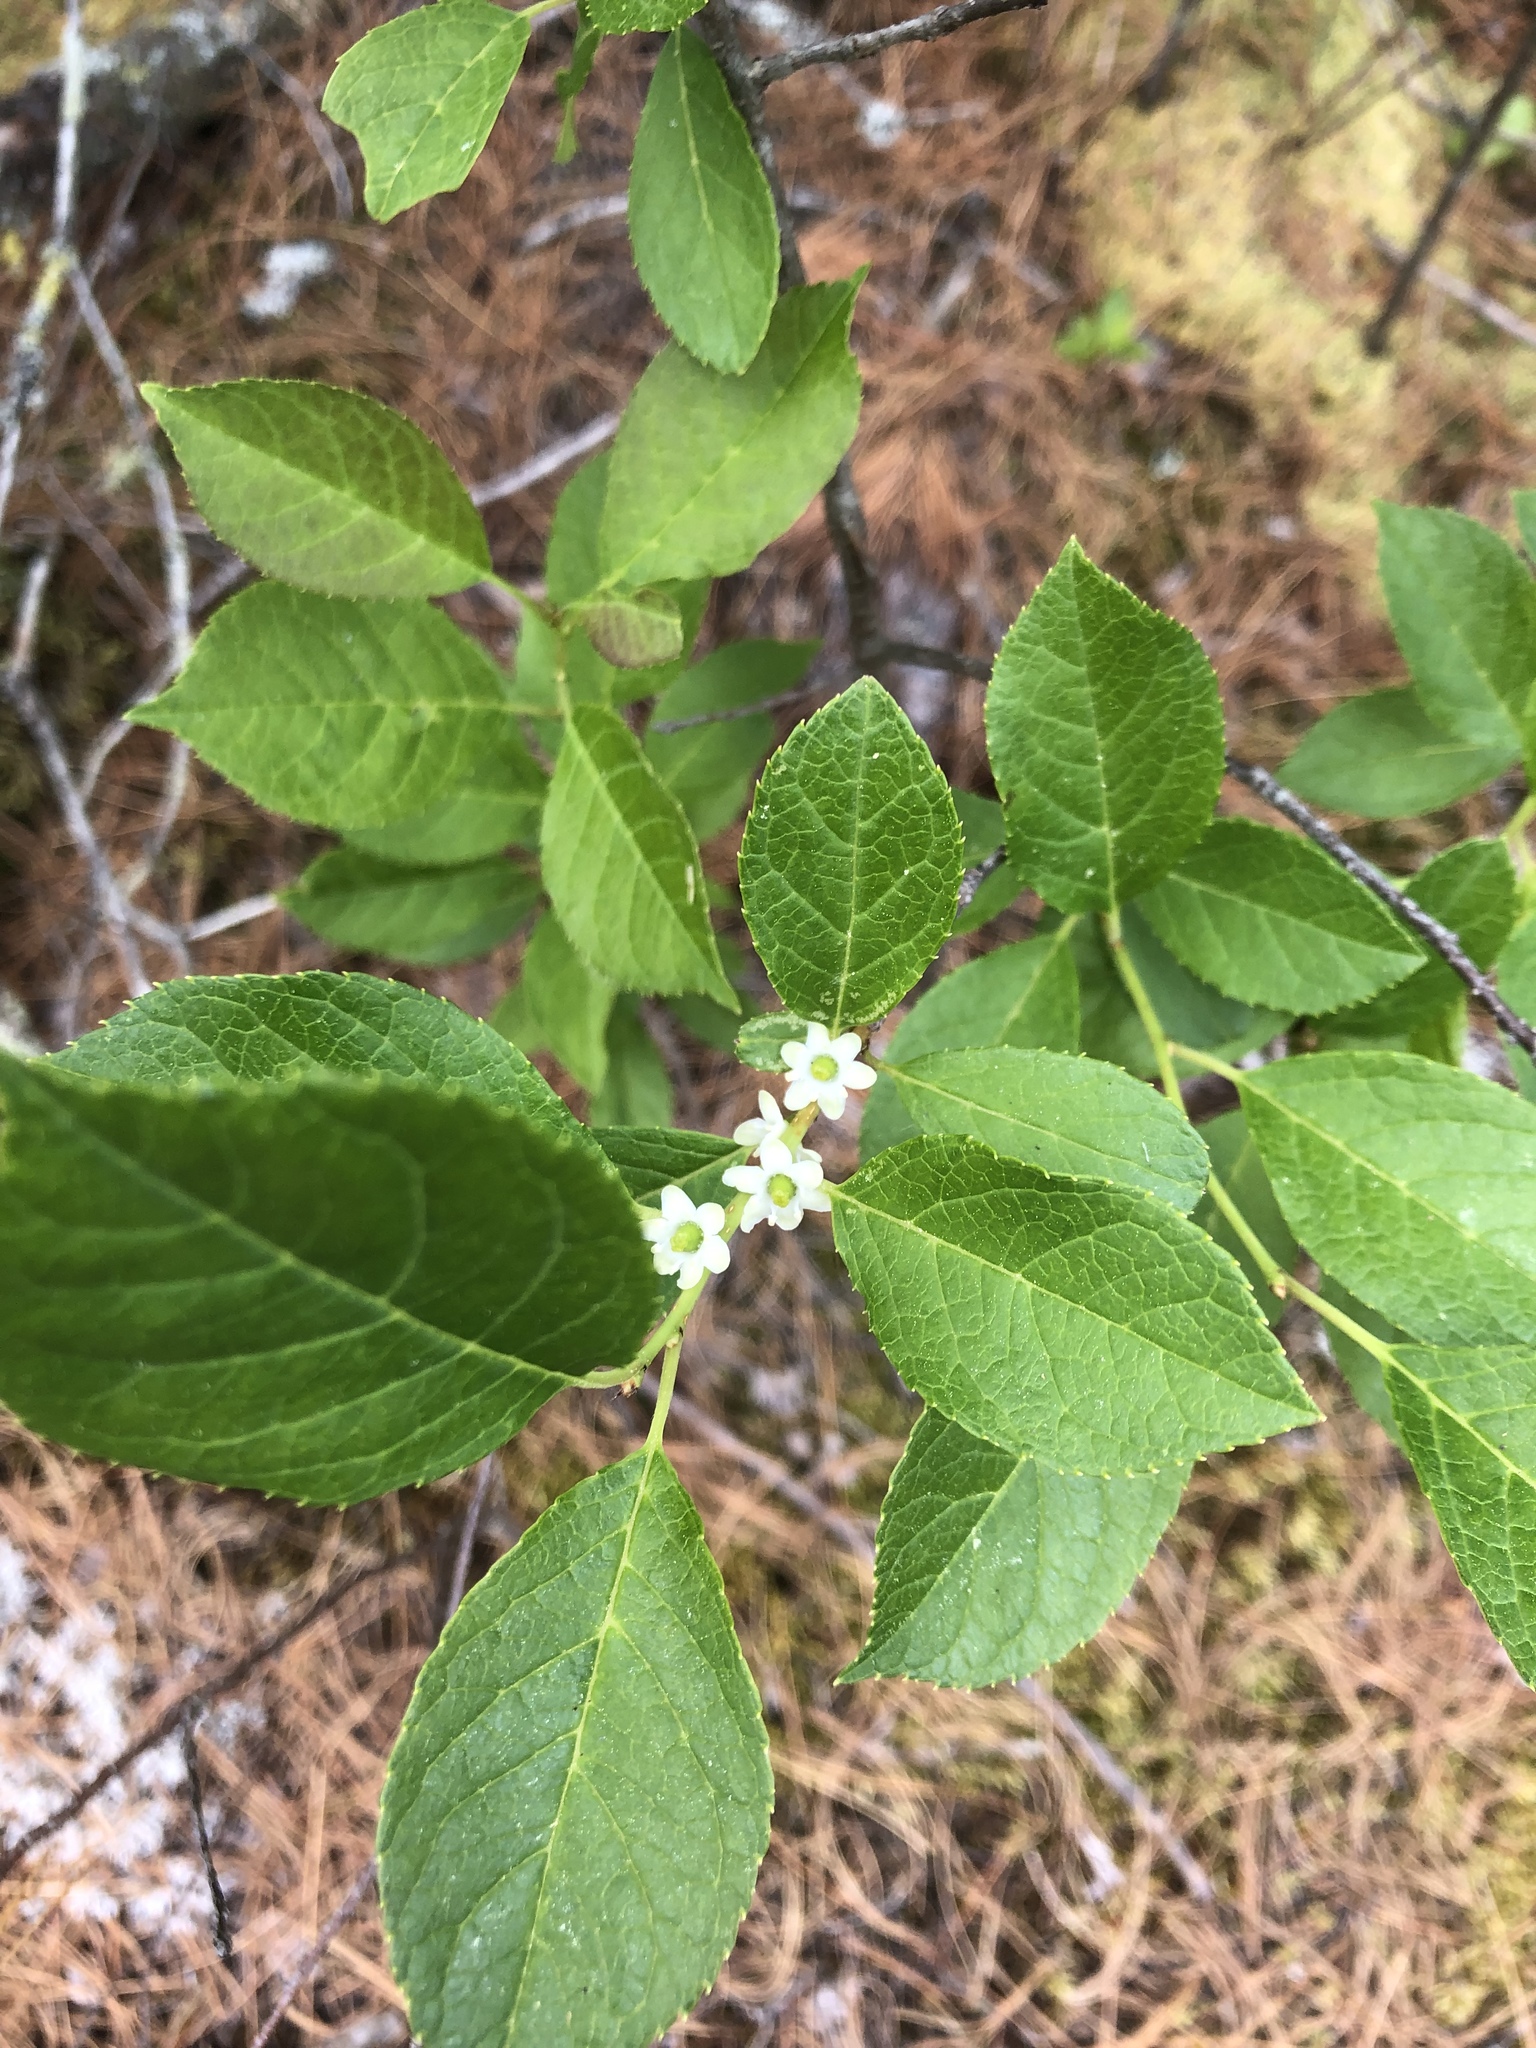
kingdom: Plantae
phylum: Tracheophyta
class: Magnoliopsida
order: Aquifoliales
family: Aquifoliaceae
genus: Ilex
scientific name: Ilex verticillata
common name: Virginia winterberry
